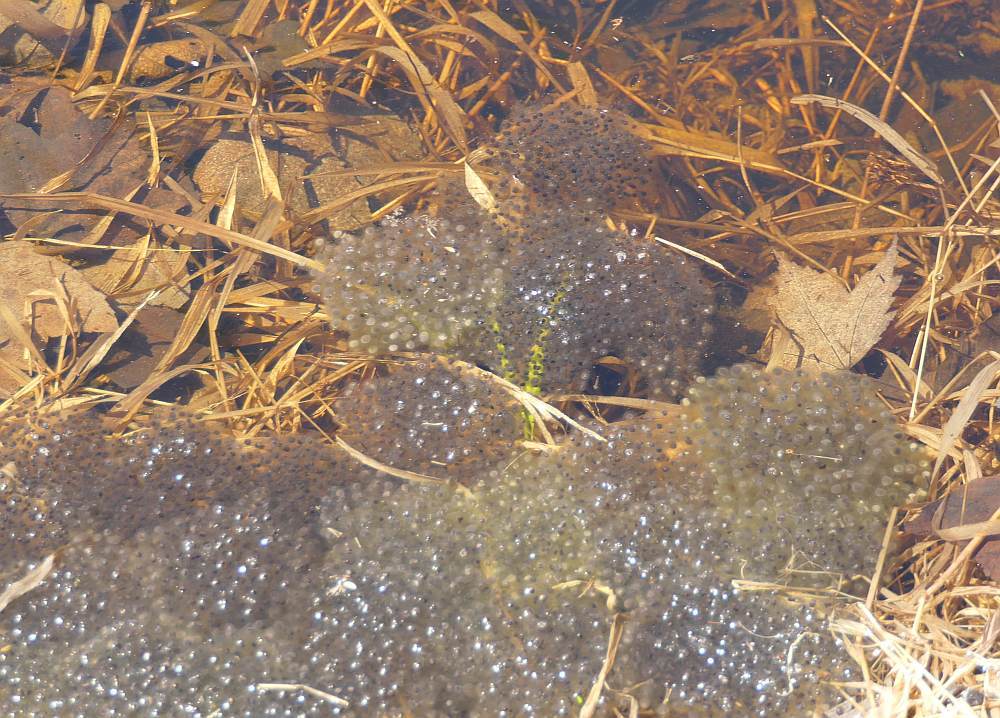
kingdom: Animalia
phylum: Chordata
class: Amphibia
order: Anura
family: Ranidae
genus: Lithobates
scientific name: Lithobates sylvaticus
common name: Wood frog
